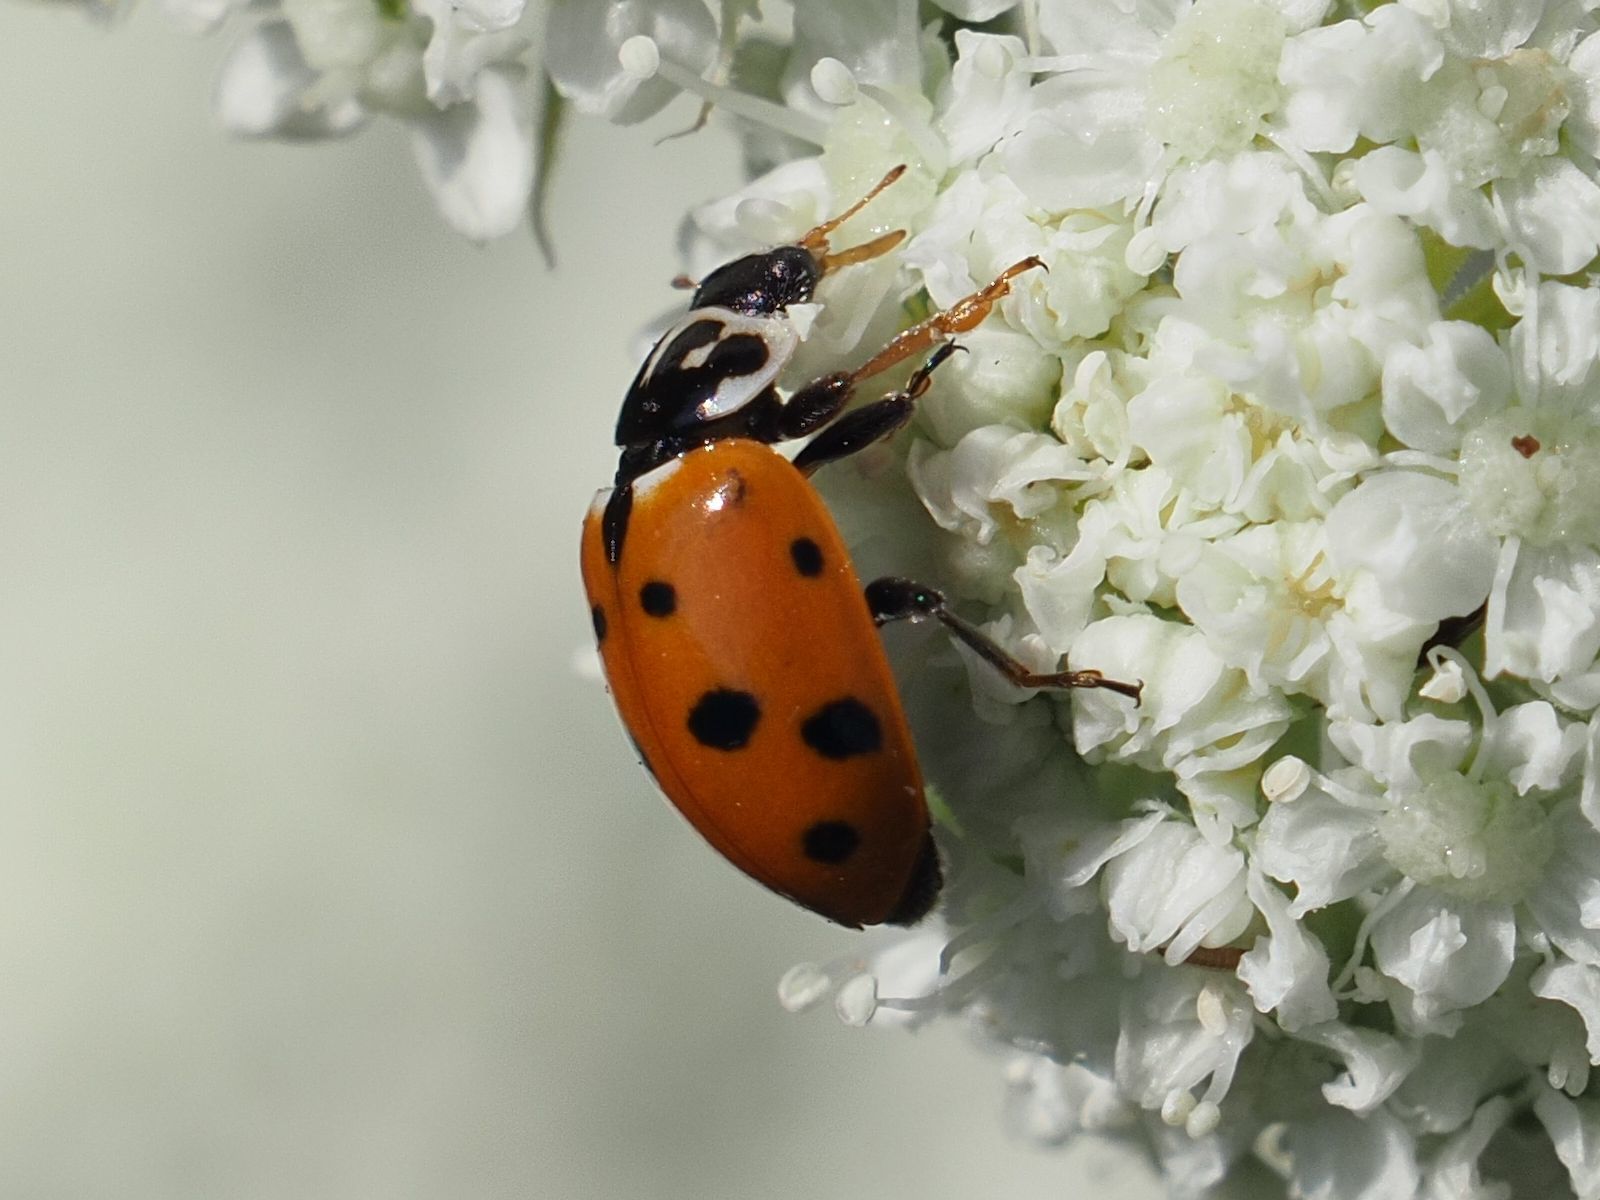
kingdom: Animalia
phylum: Arthropoda
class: Insecta
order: Coleoptera
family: Coccinellidae
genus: Hippodamia
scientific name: Hippodamia variegata
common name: Ladybird beetle
